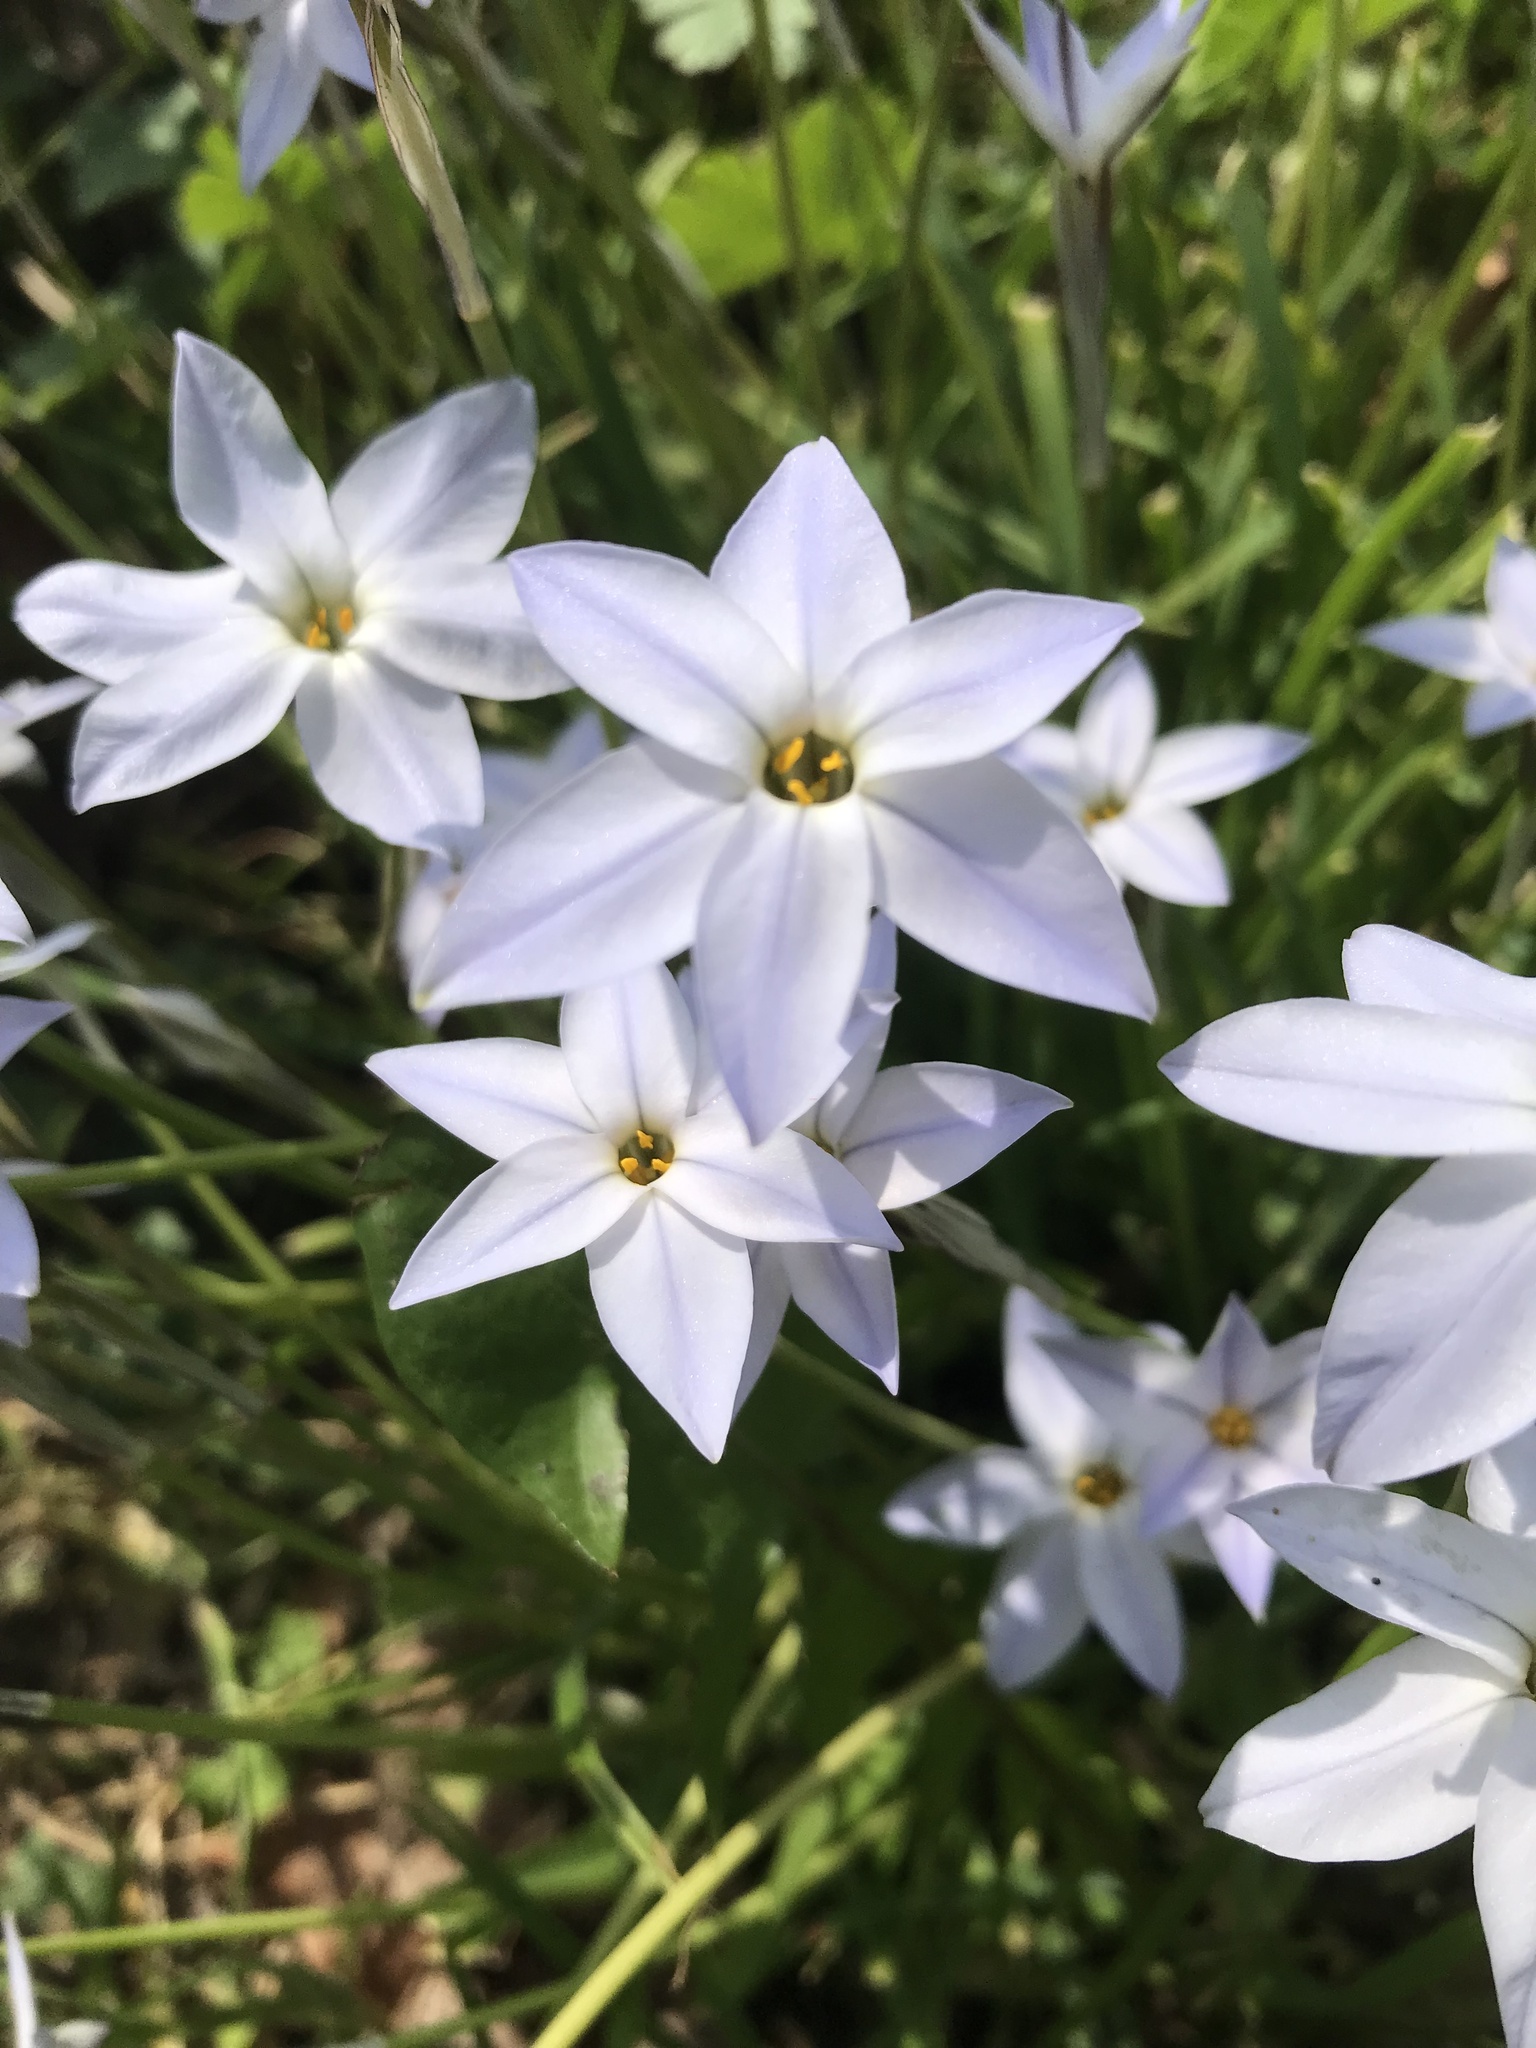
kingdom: Plantae
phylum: Tracheophyta
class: Liliopsida
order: Asparagales
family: Amaryllidaceae
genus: Ipheion
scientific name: Ipheion uniflorum
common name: Spring starflower
